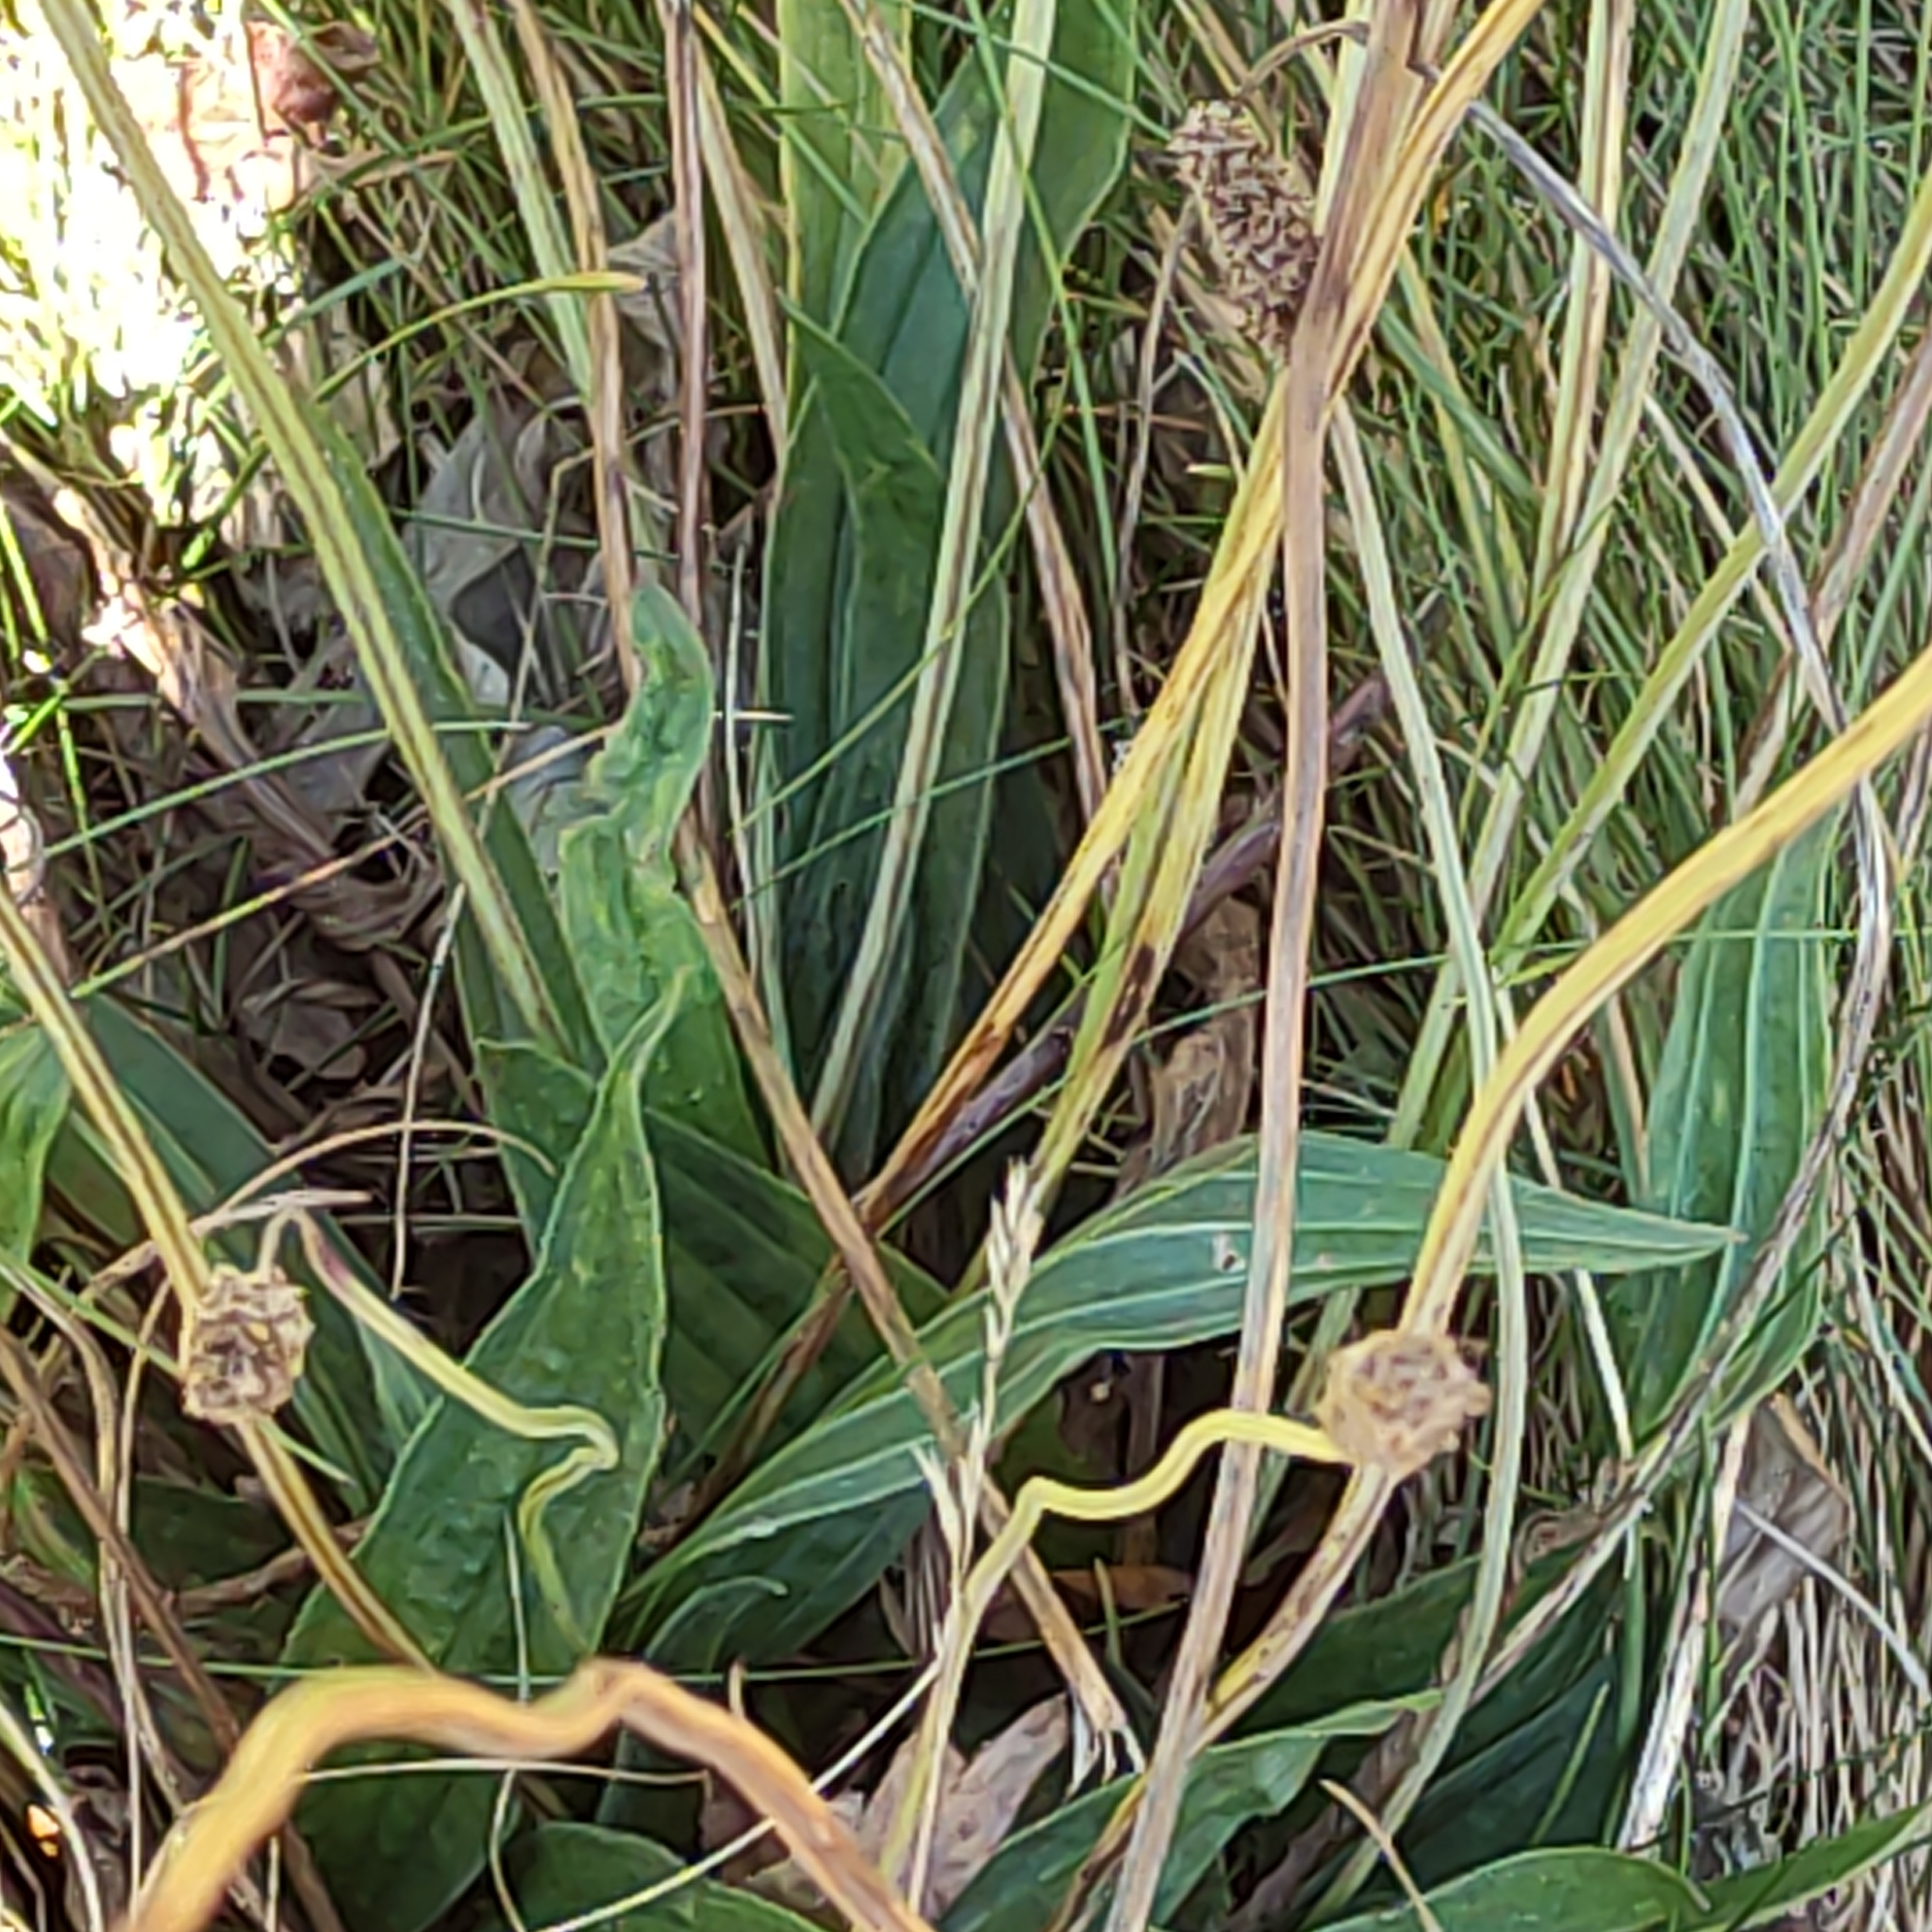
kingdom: Plantae
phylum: Tracheophyta
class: Magnoliopsida
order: Lamiales
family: Plantaginaceae
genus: Plantago
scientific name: Plantago lanceolata
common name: Ribwort plantain
